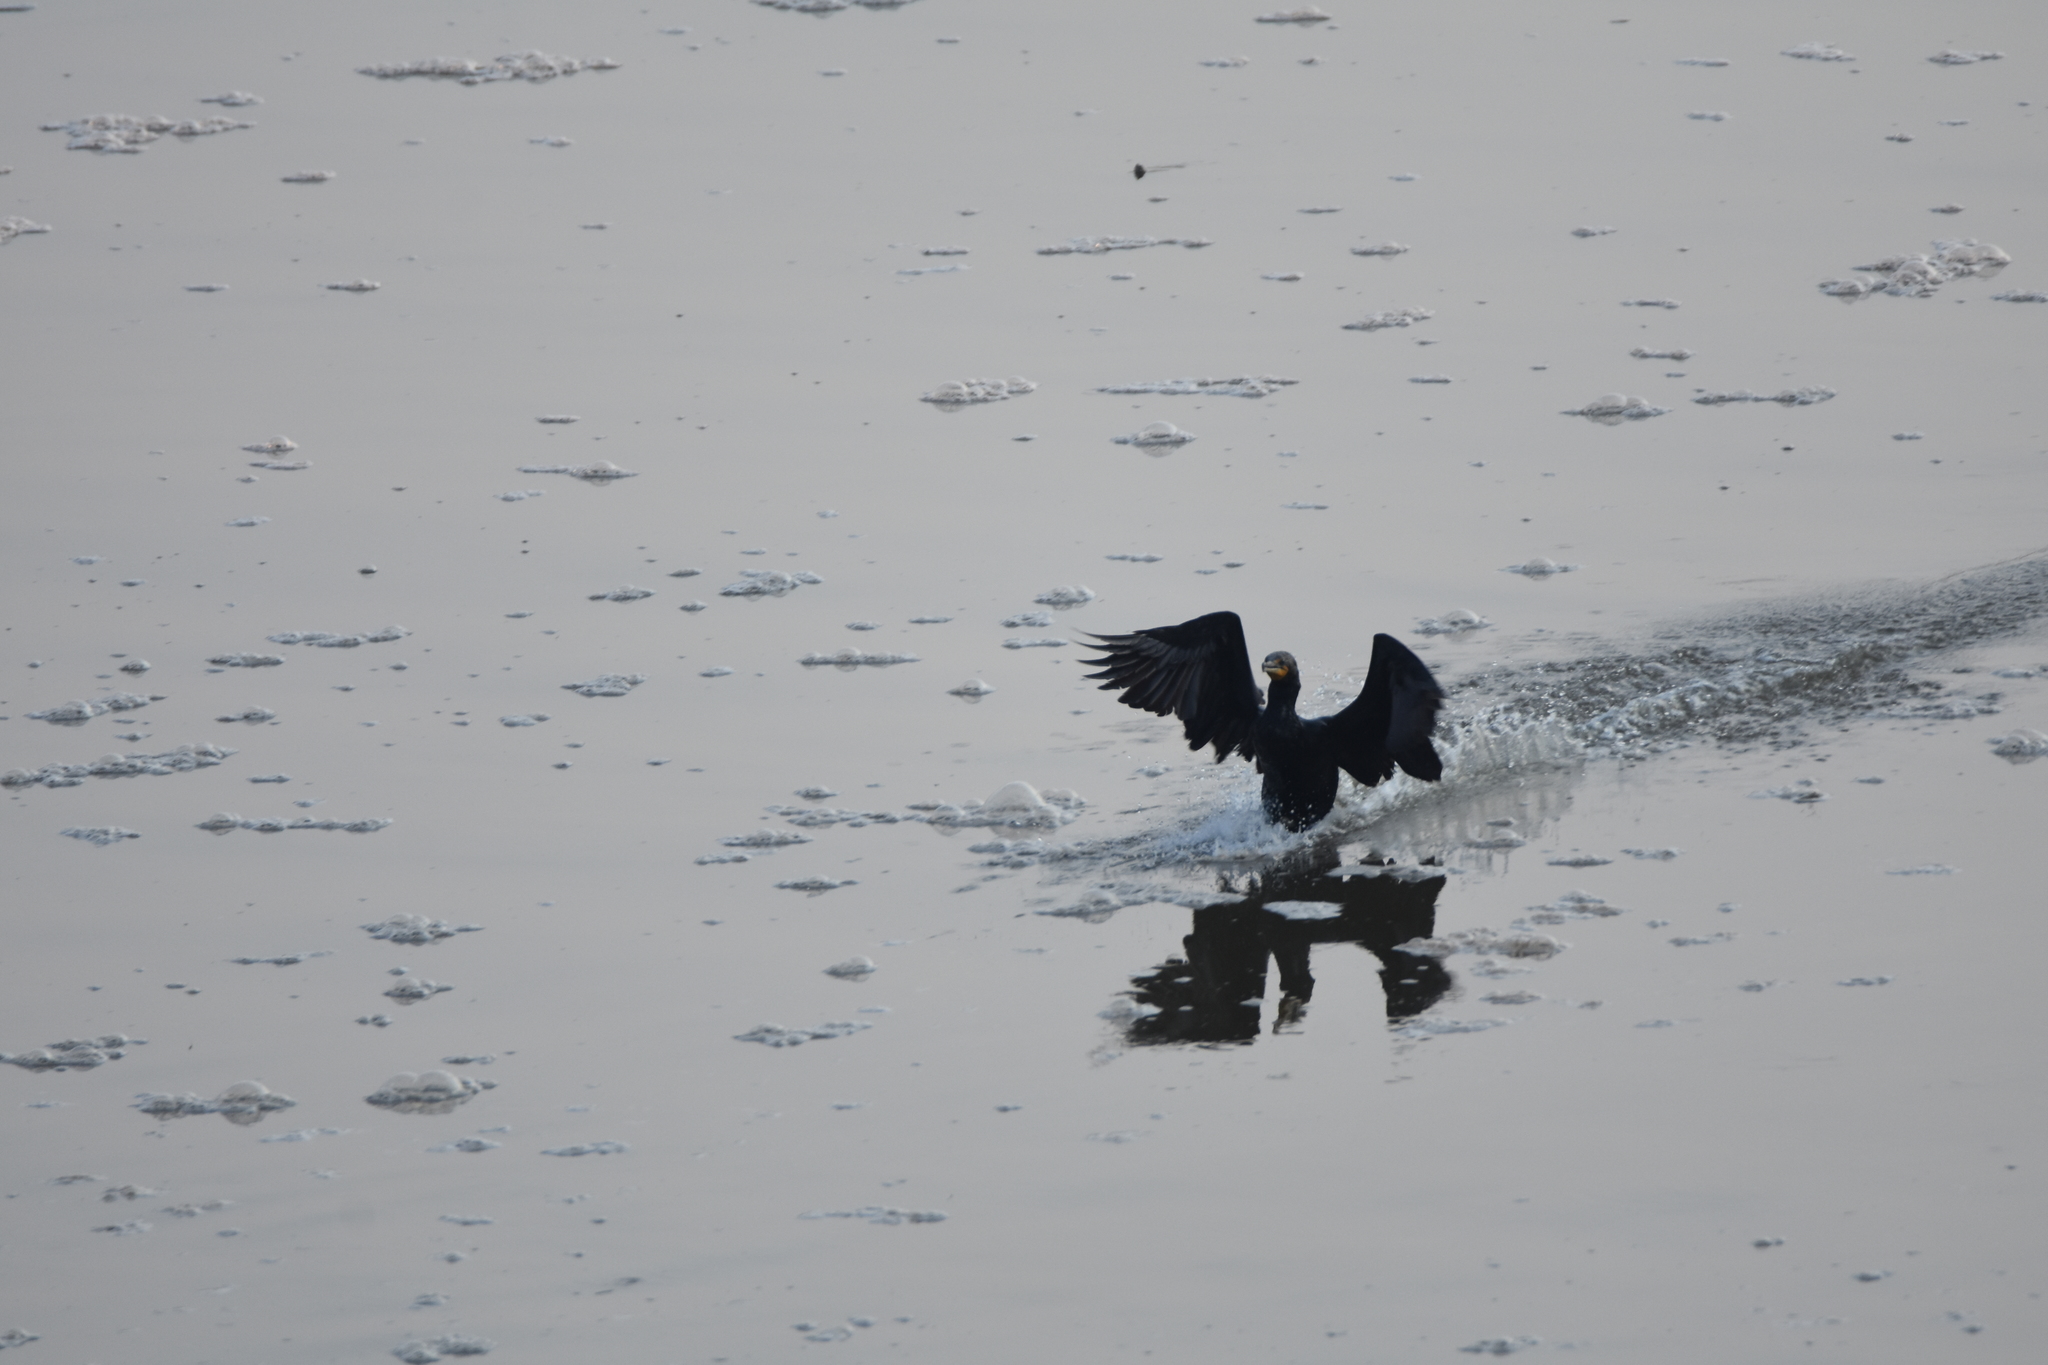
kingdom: Animalia
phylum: Chordata
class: Aves
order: Suliformes
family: Phalacrocoracidae
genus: Phalacrocorax
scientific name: Phalacrocorax auritus
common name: Double-crested cormorant
